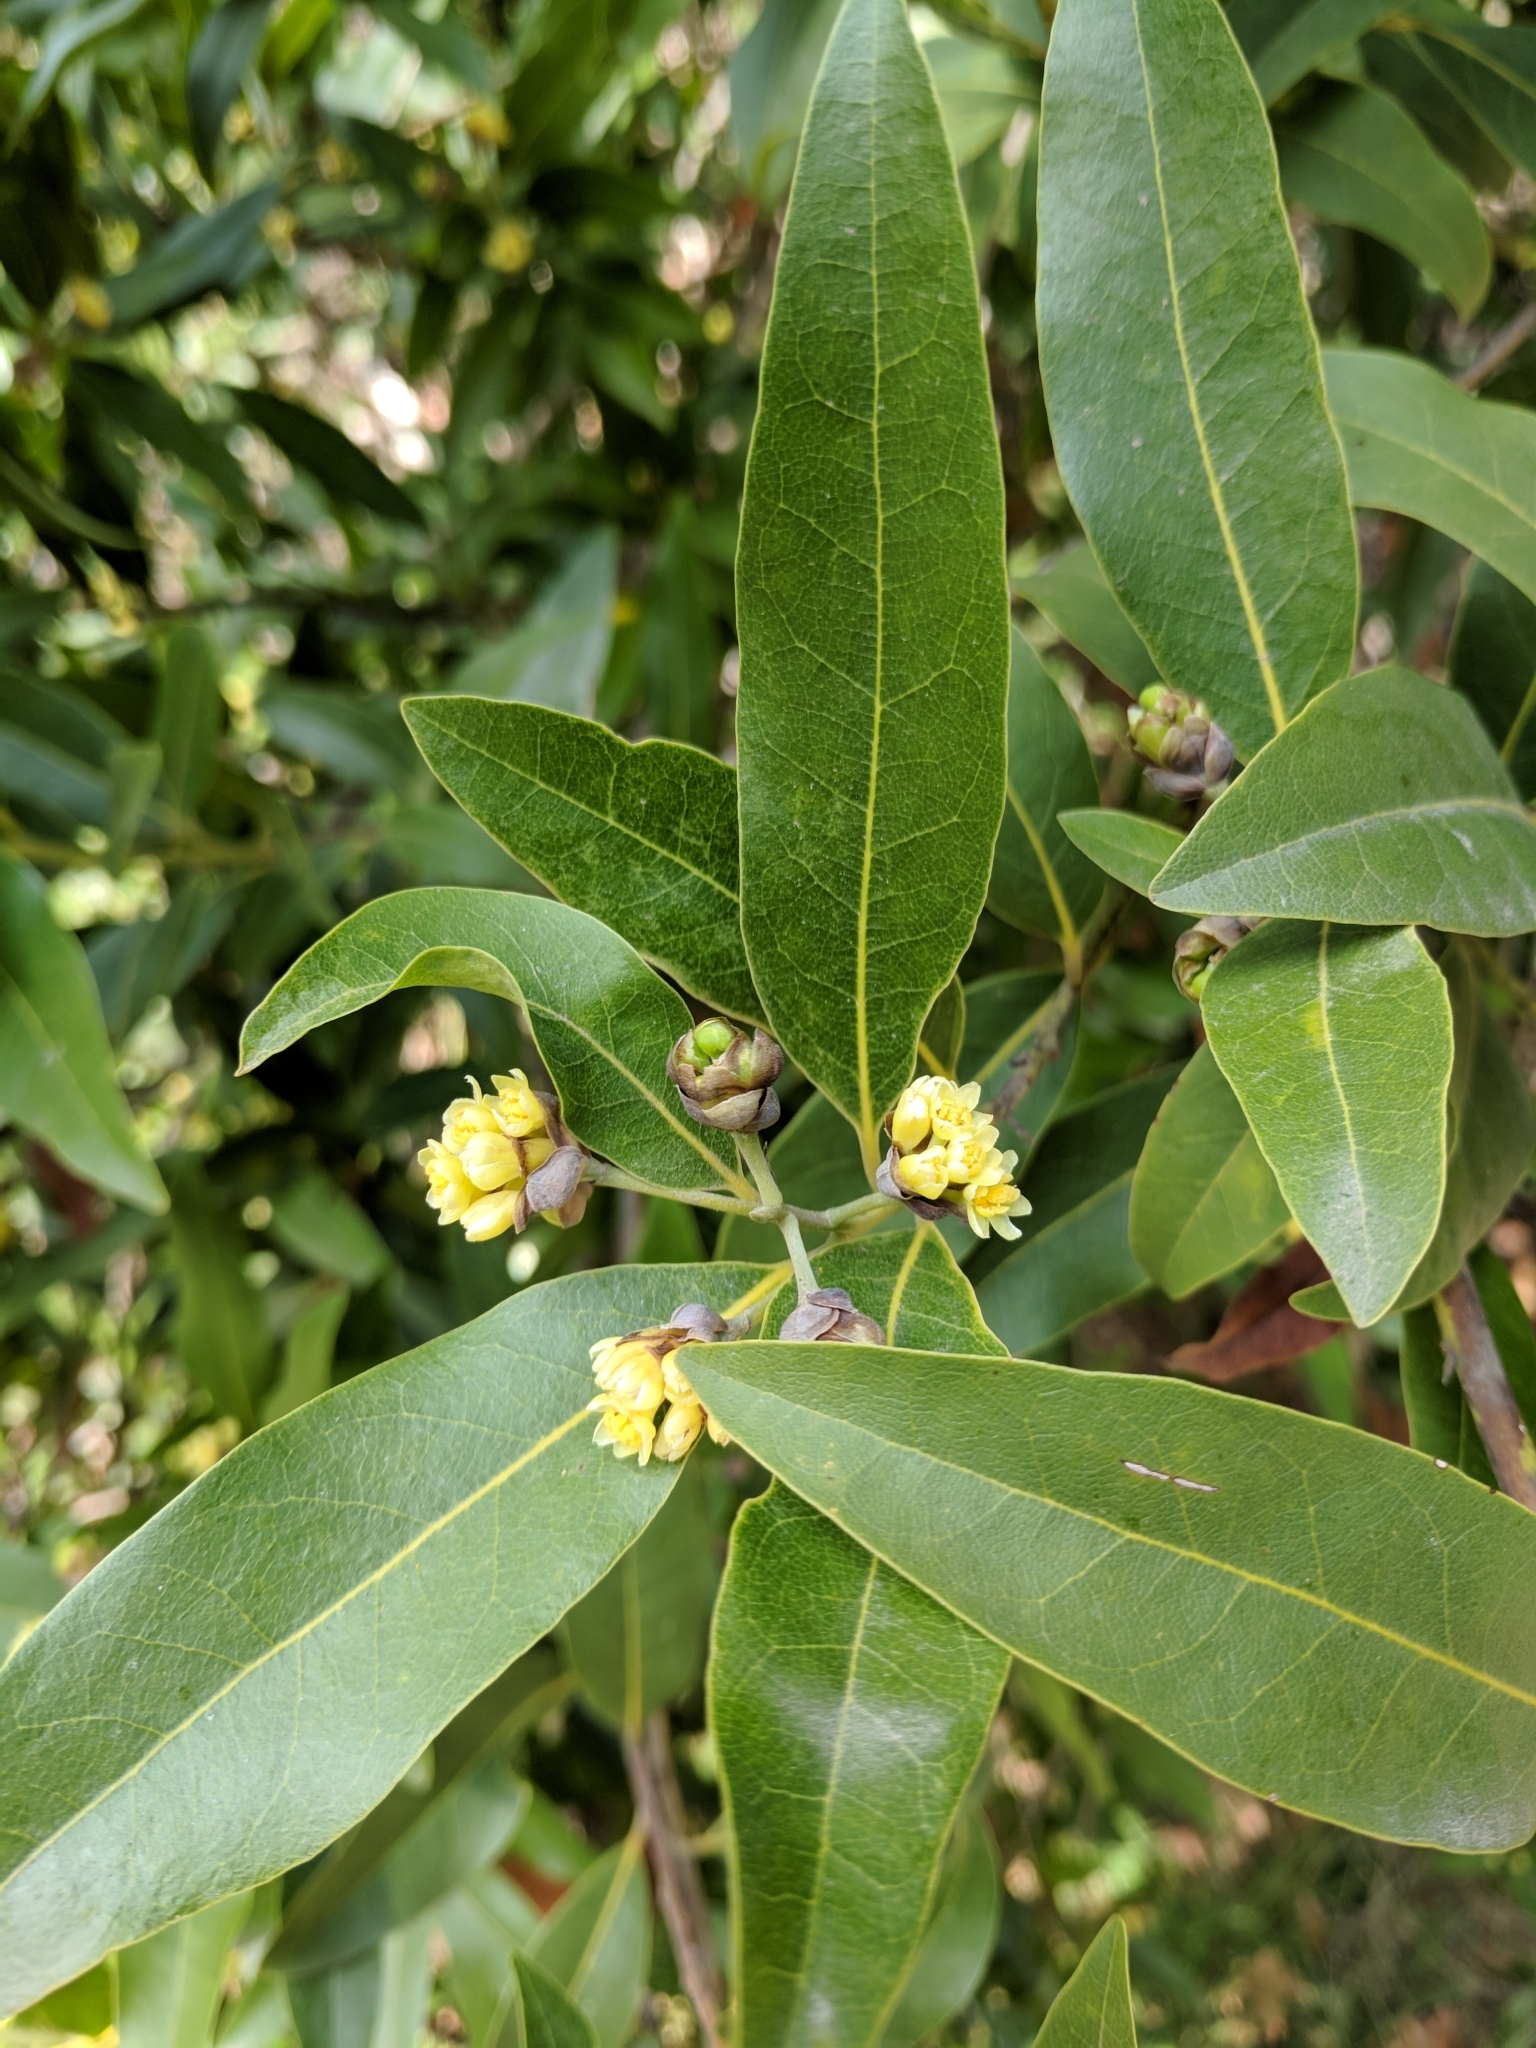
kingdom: Plantae
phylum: Tracheophyta
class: Magnoliopsida
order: Laurales
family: Lauraceae
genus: Umbellularia
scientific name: Umbellularia californica
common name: California bay
